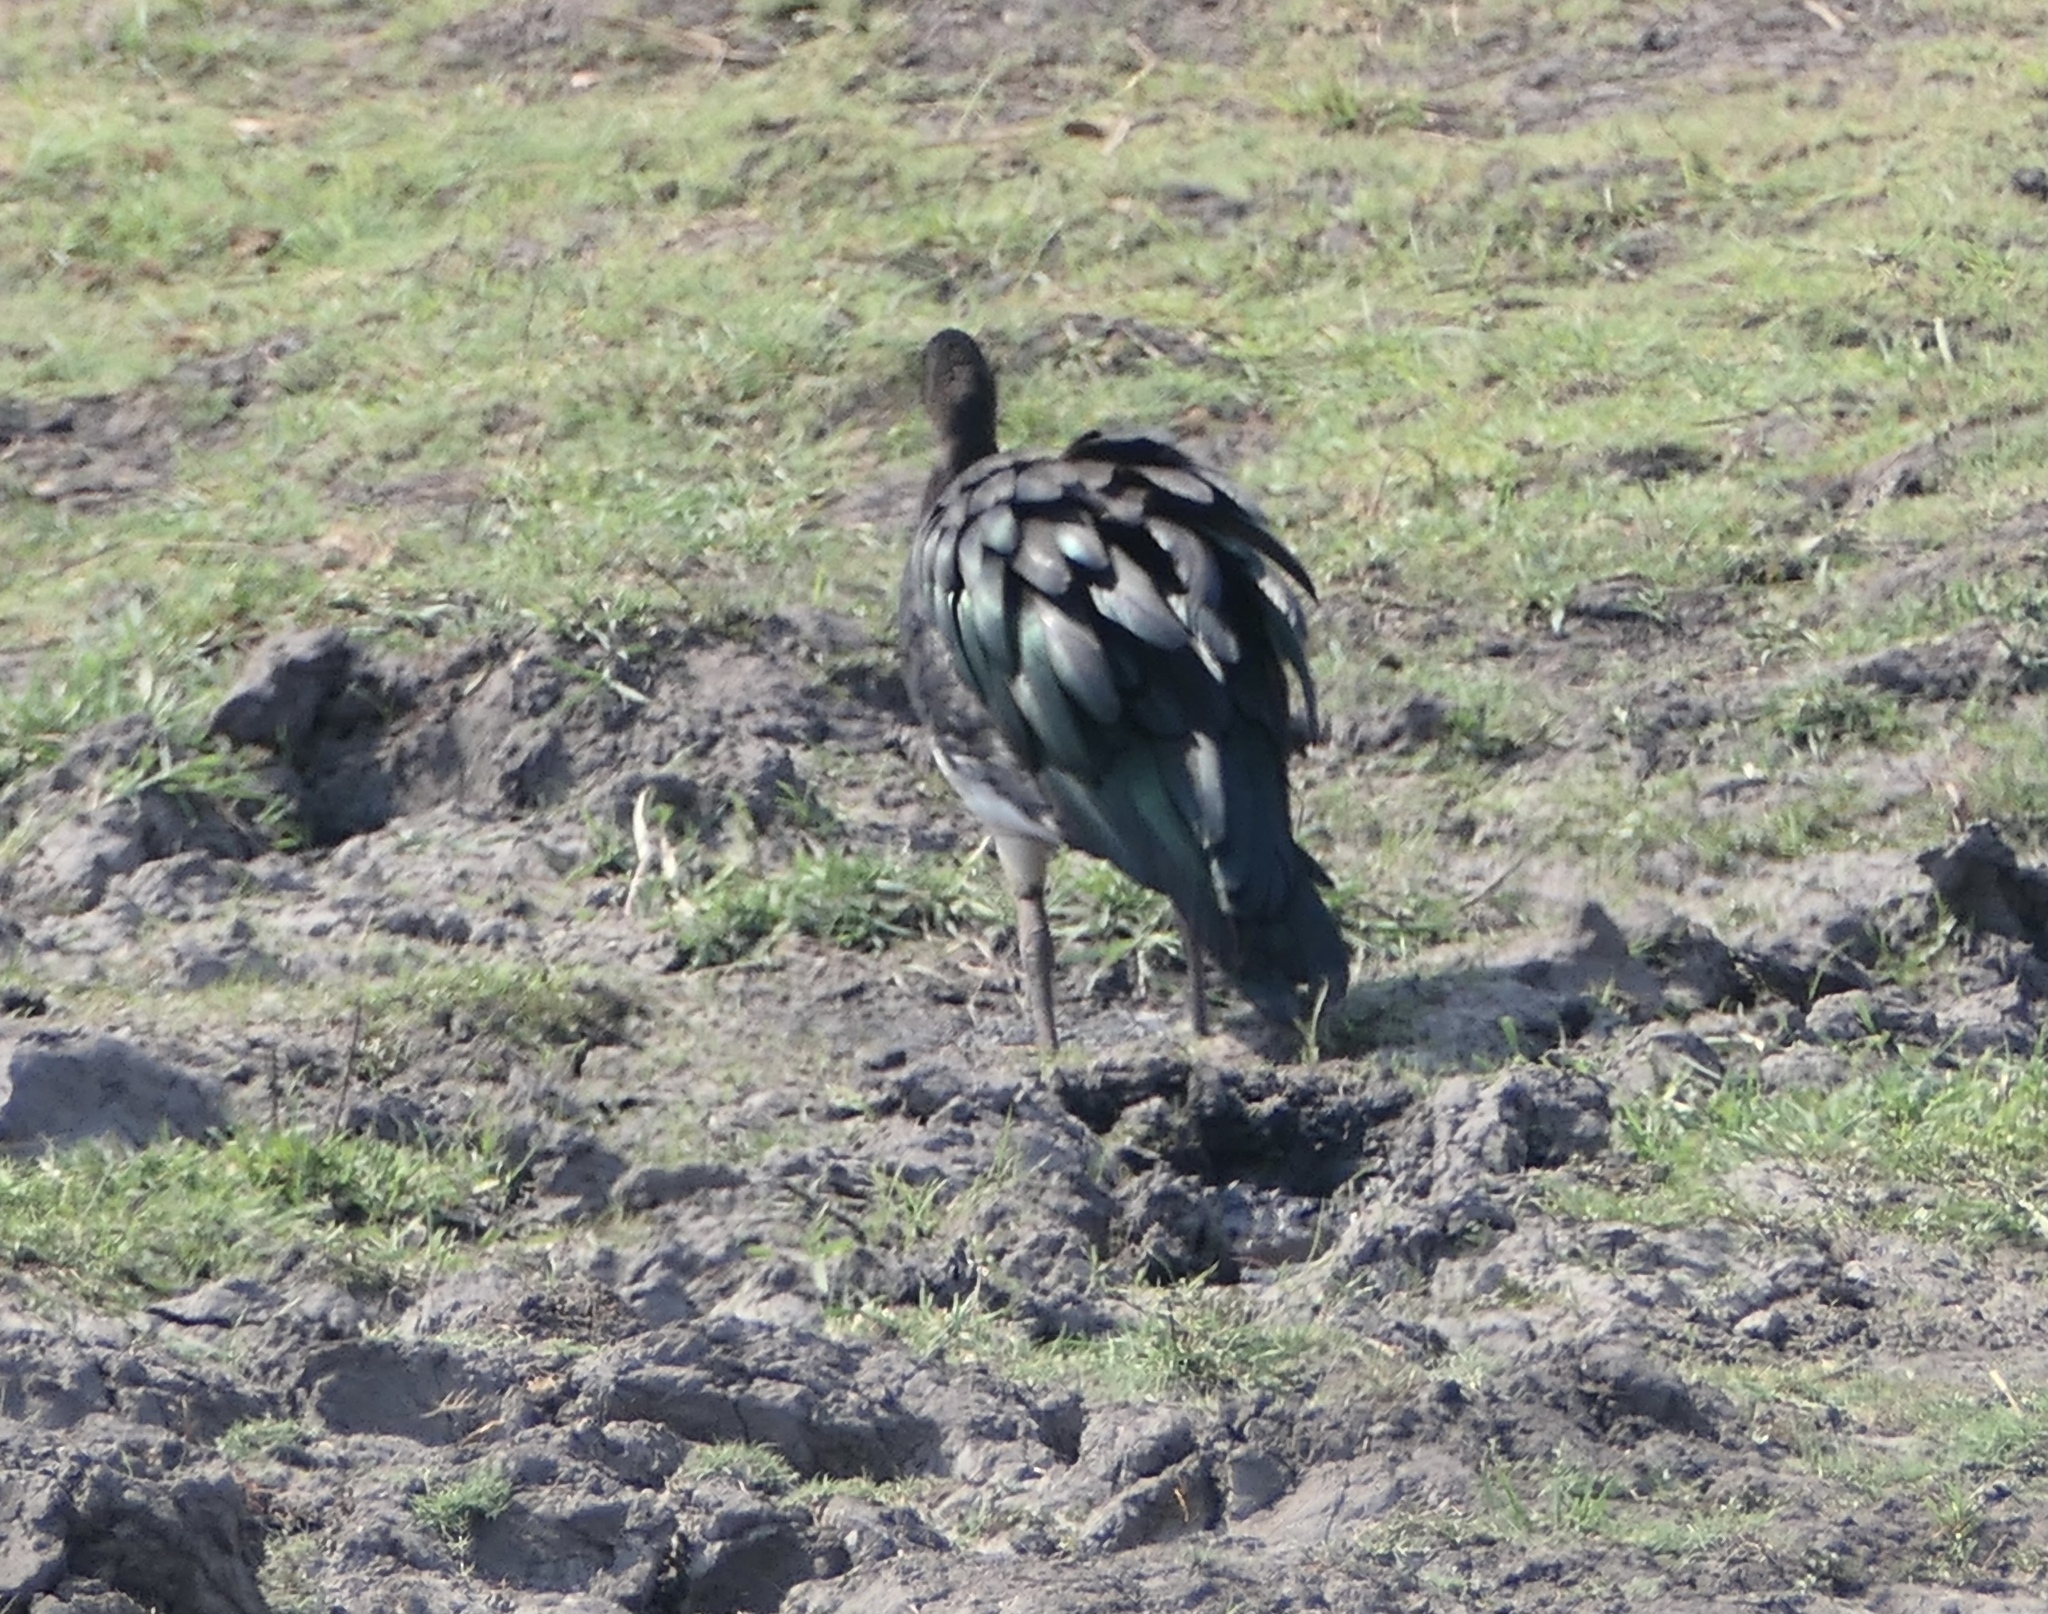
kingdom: Animalia
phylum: Chordata
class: Aves
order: Anseriformes
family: Anatidae
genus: Plectropterus
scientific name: Plectropterus gambensis
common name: Spur-winged goose
